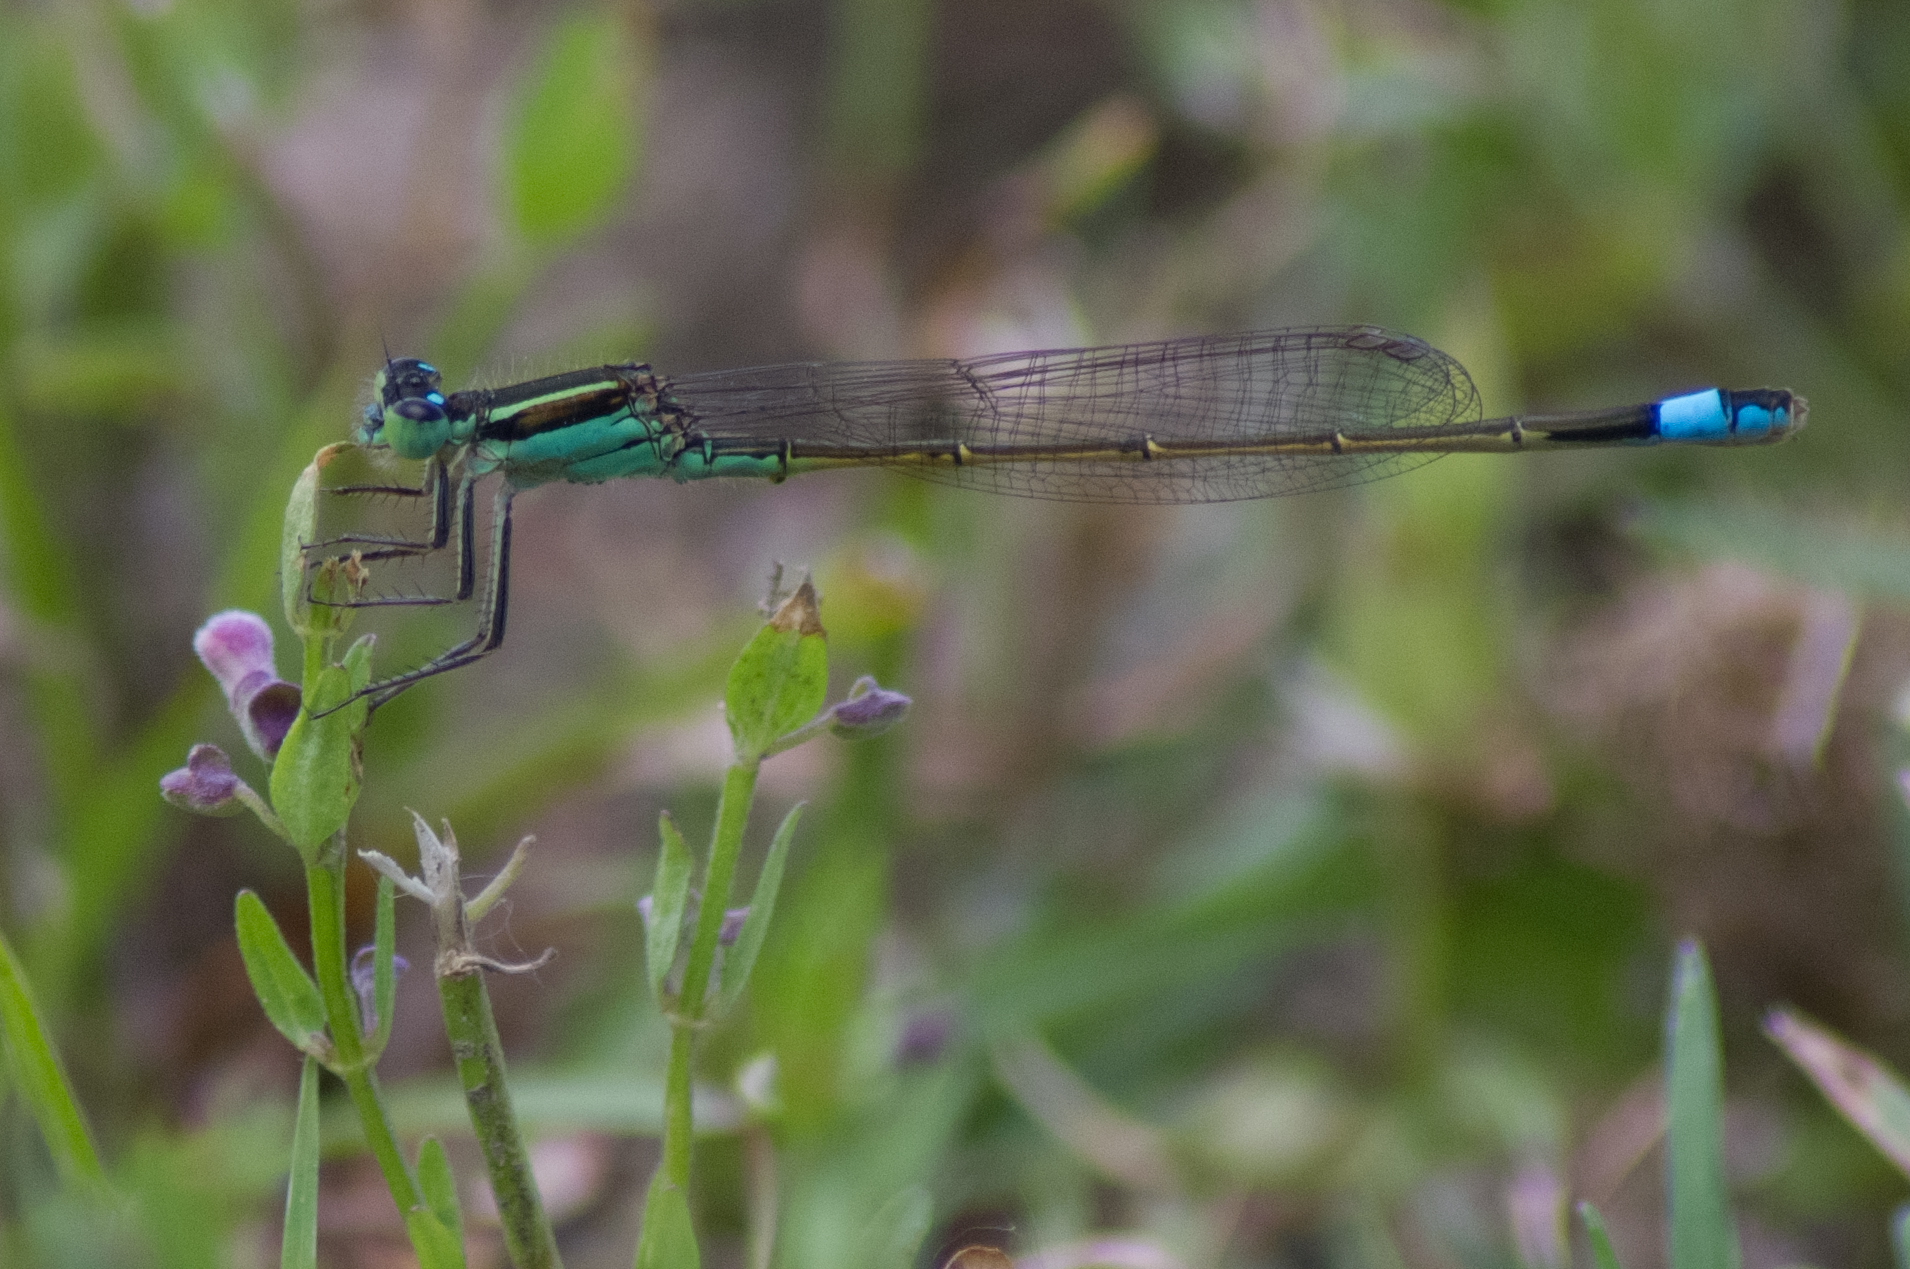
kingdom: Animalia
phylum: Arthropoda
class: Insecta
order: Odonata
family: Coenagrionidae
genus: Ischnura
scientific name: Ischnura ramburii
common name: Rambur's forktail
